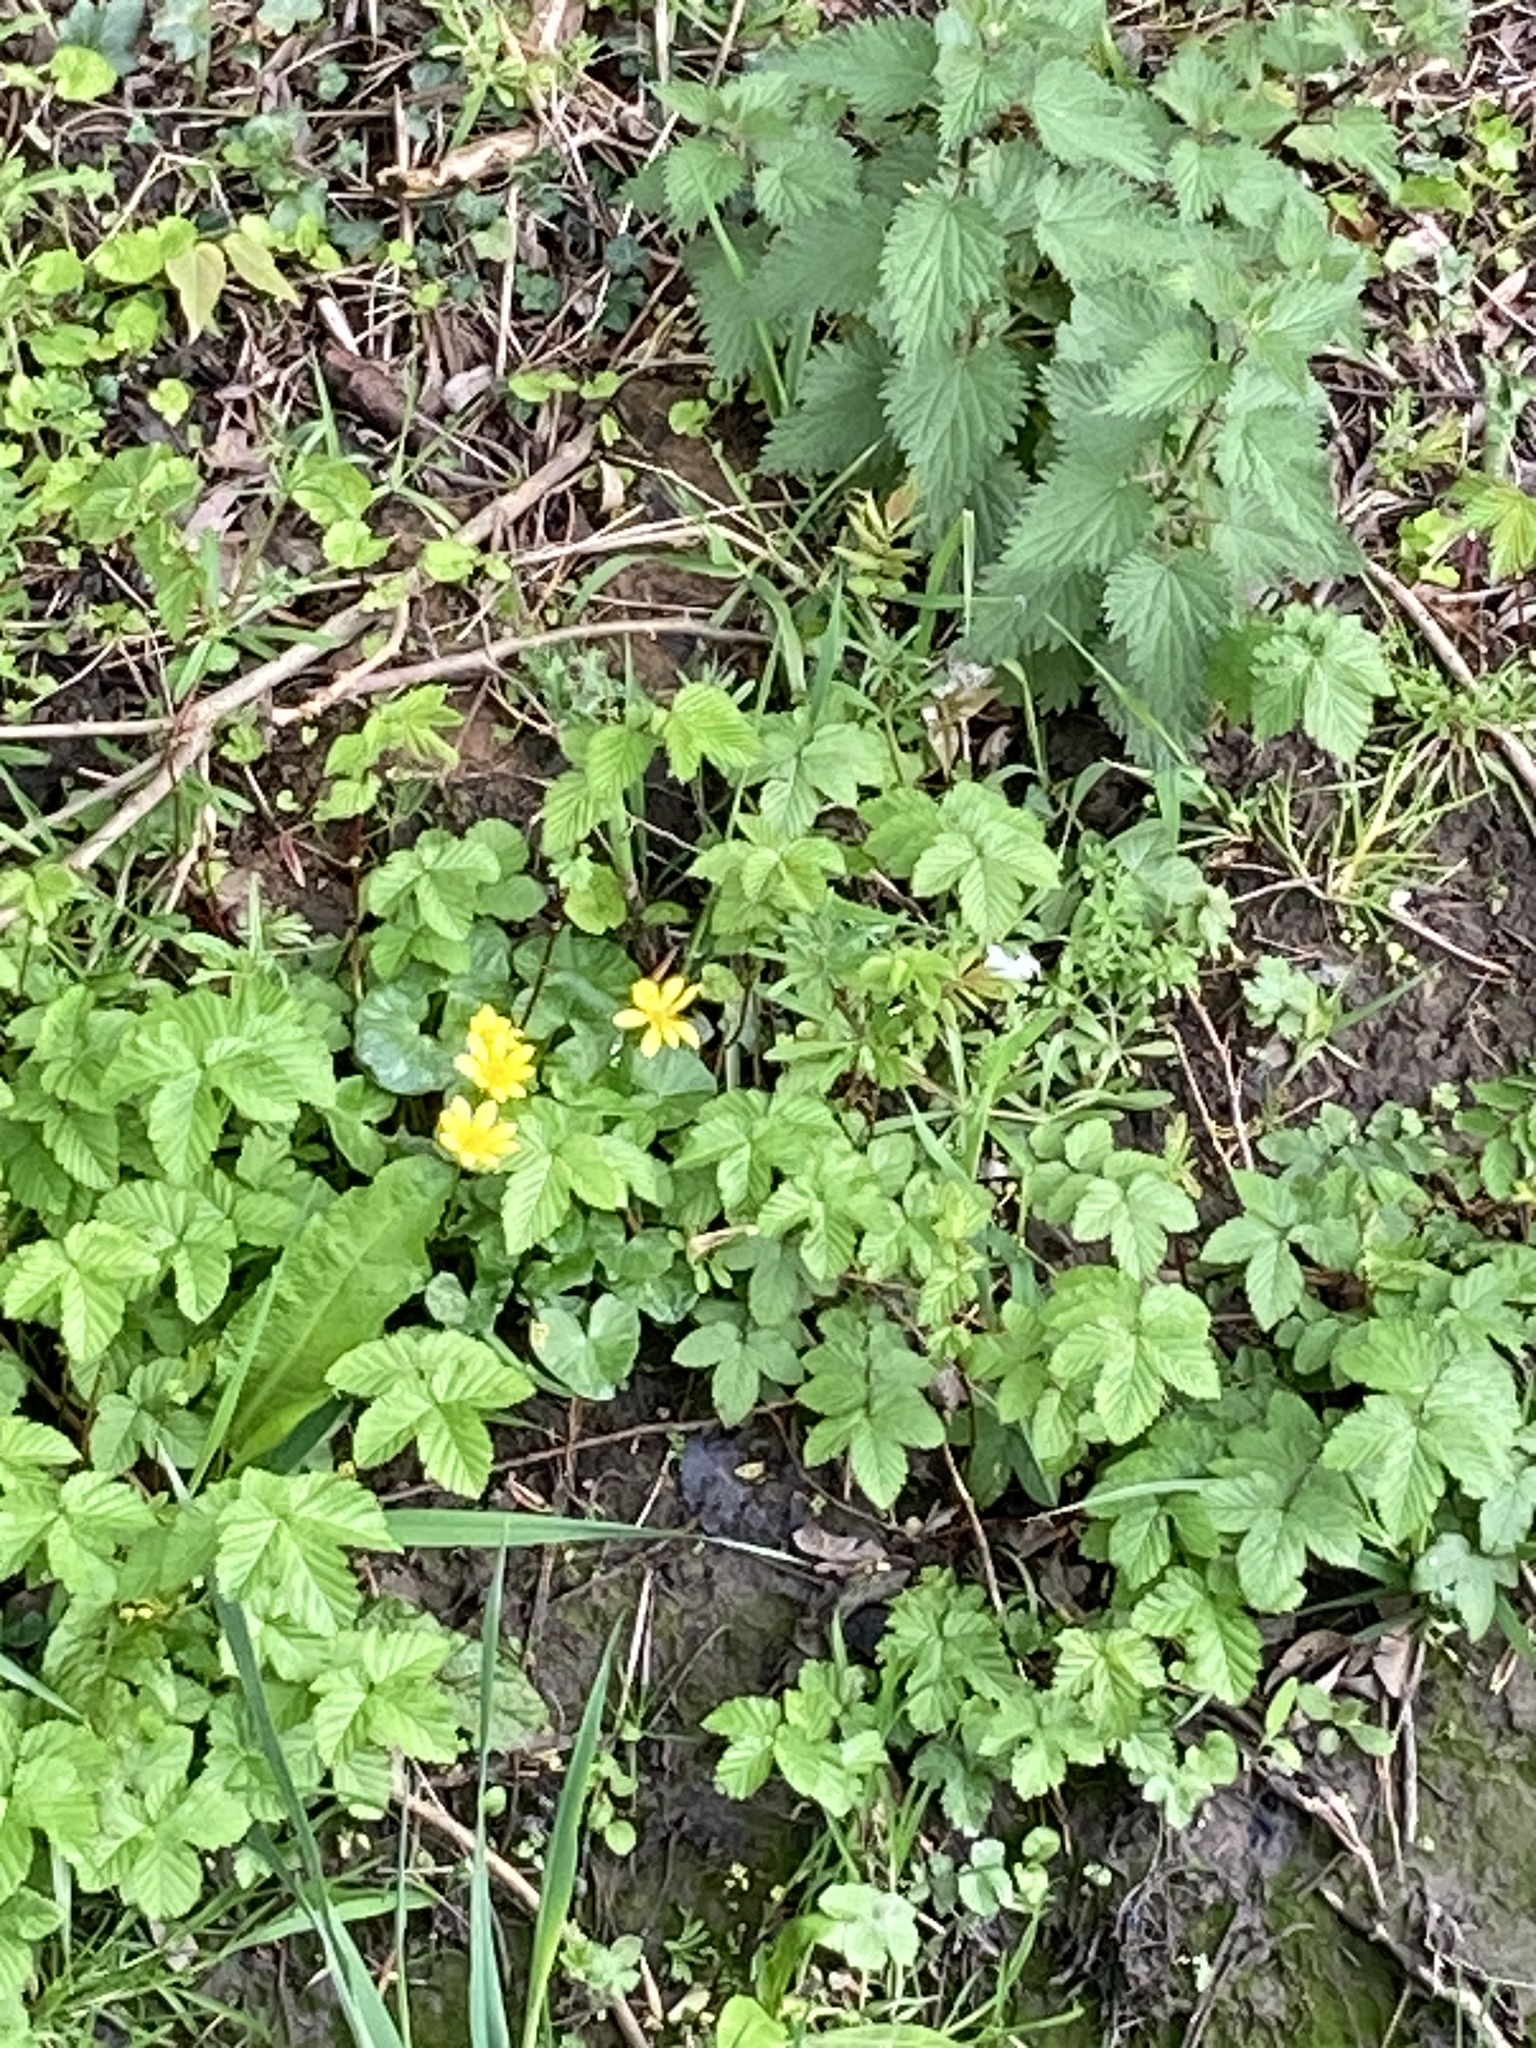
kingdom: Plantae
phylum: Tracheophyta
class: Magnoliopsida
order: Ranunculales
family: Ranunculaceae
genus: Ficaria
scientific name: Ficaria verna
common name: Lesser celandine
